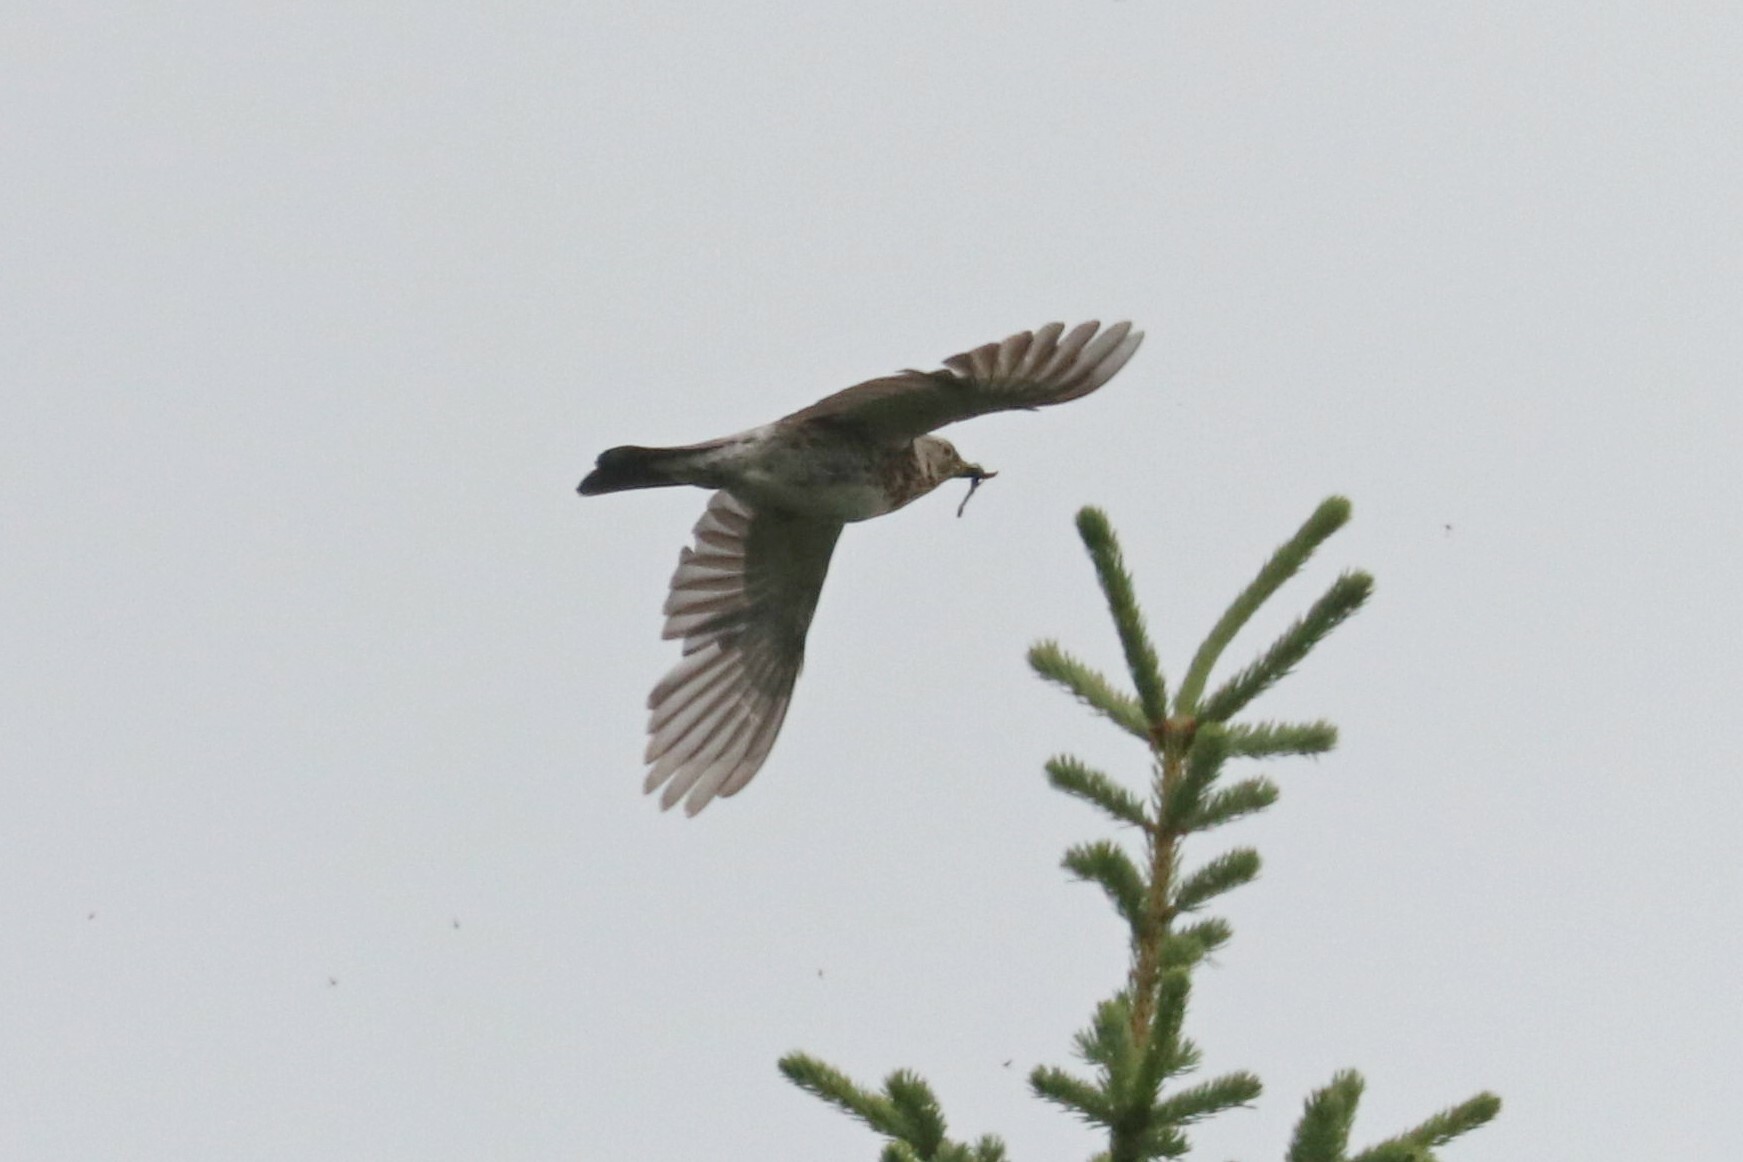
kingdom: Animalia
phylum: Chordata
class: Aves
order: Passeriformes
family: Turdidae
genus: Turdus
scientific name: Turdus pilaris
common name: Fieldfare
